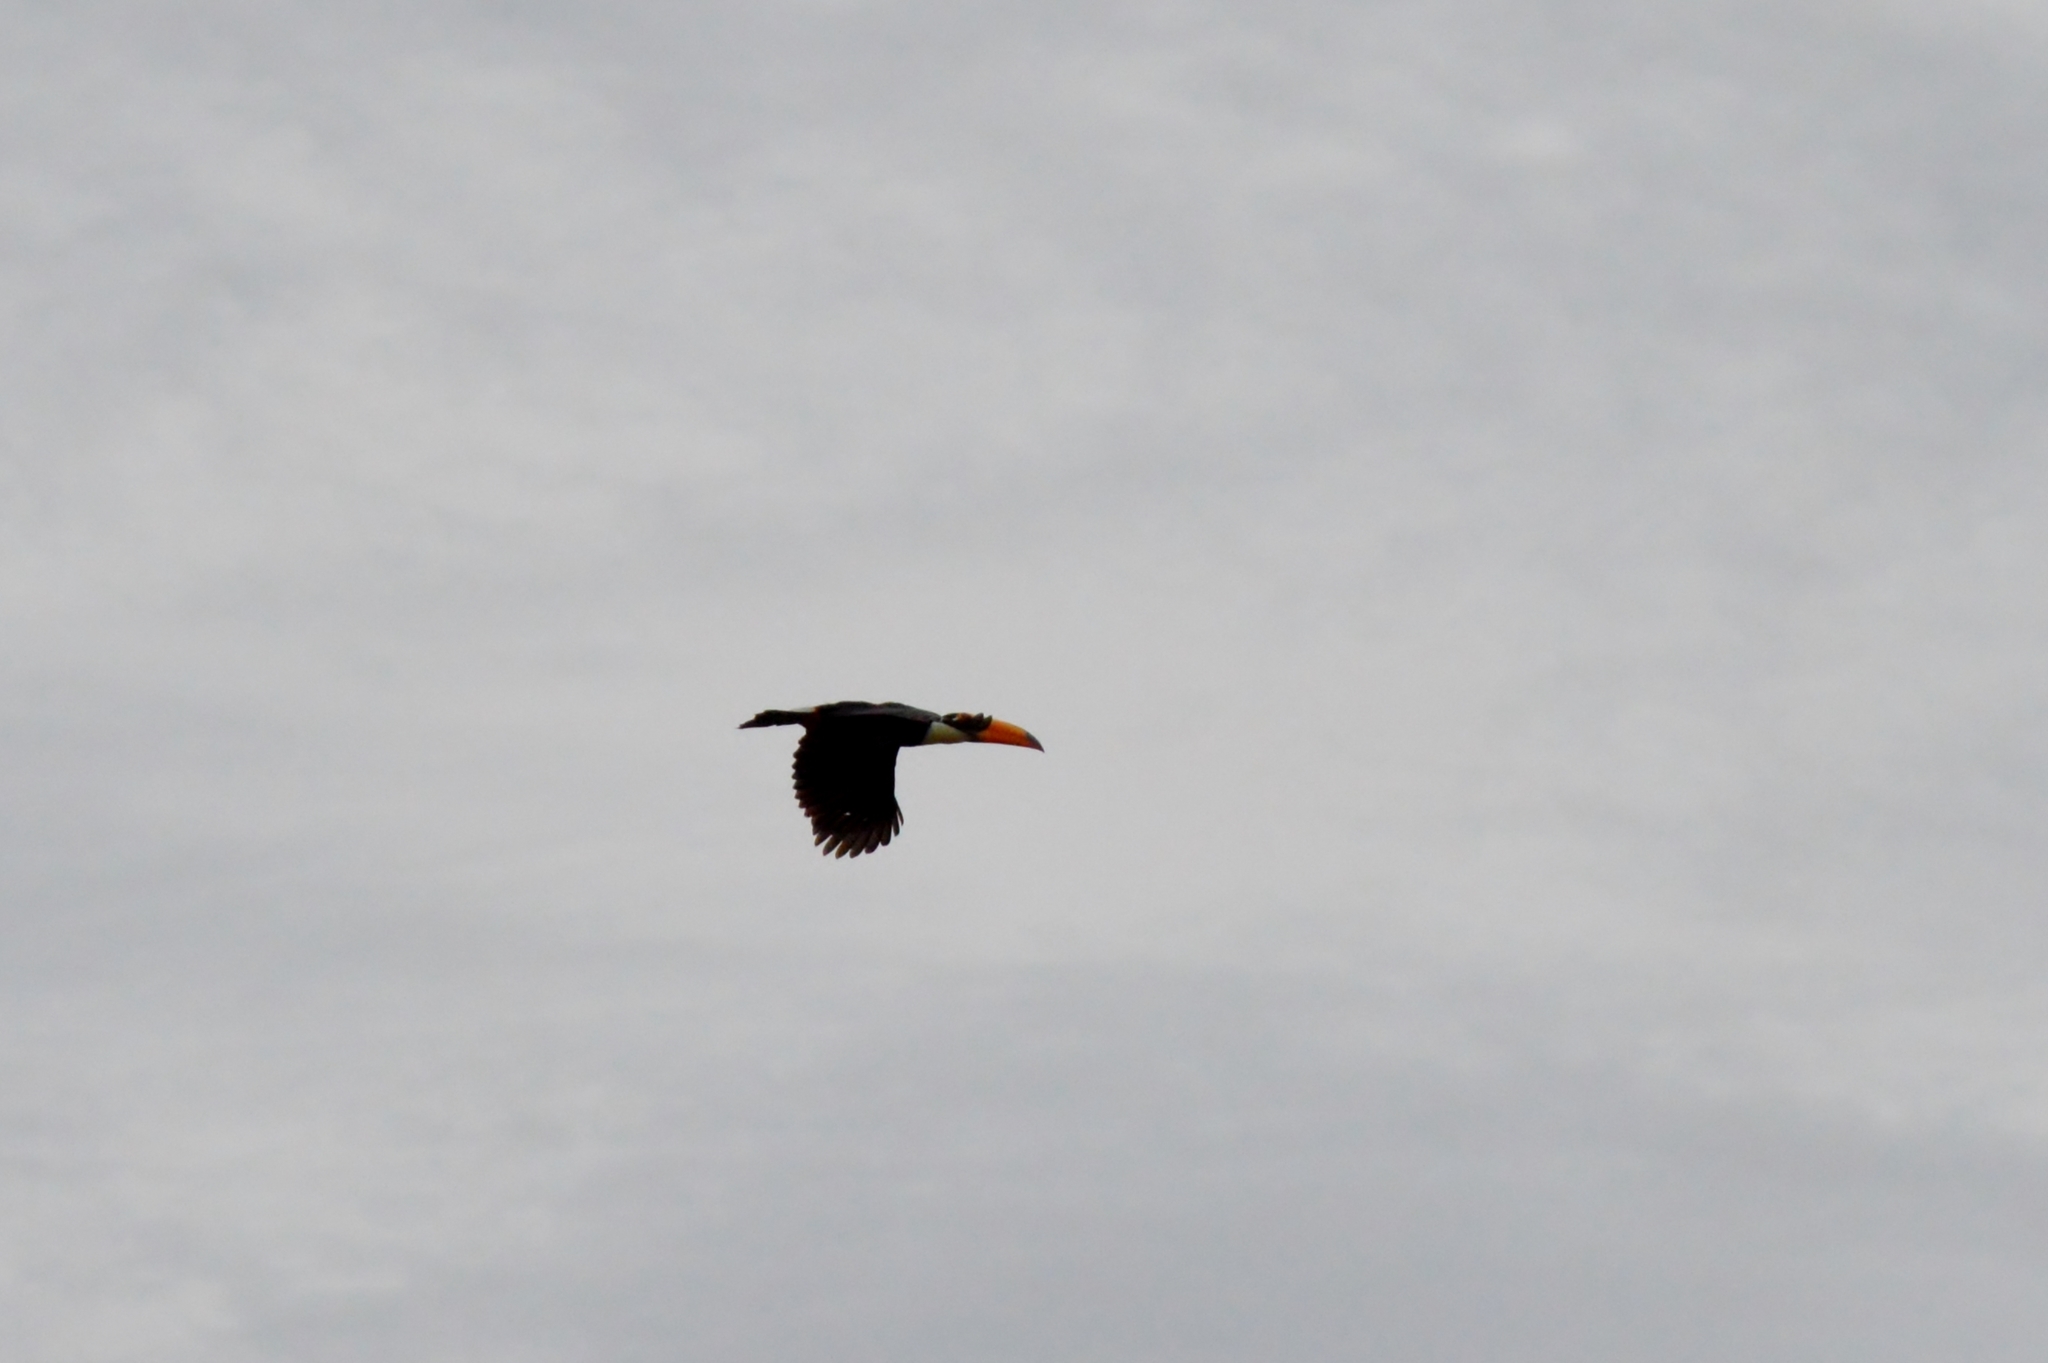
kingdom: Animalia
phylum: Chordata
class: Aves
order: Piciformes
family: Ramphastidae
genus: Ramphastos
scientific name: Ramphastos toco
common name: Toco toucan
